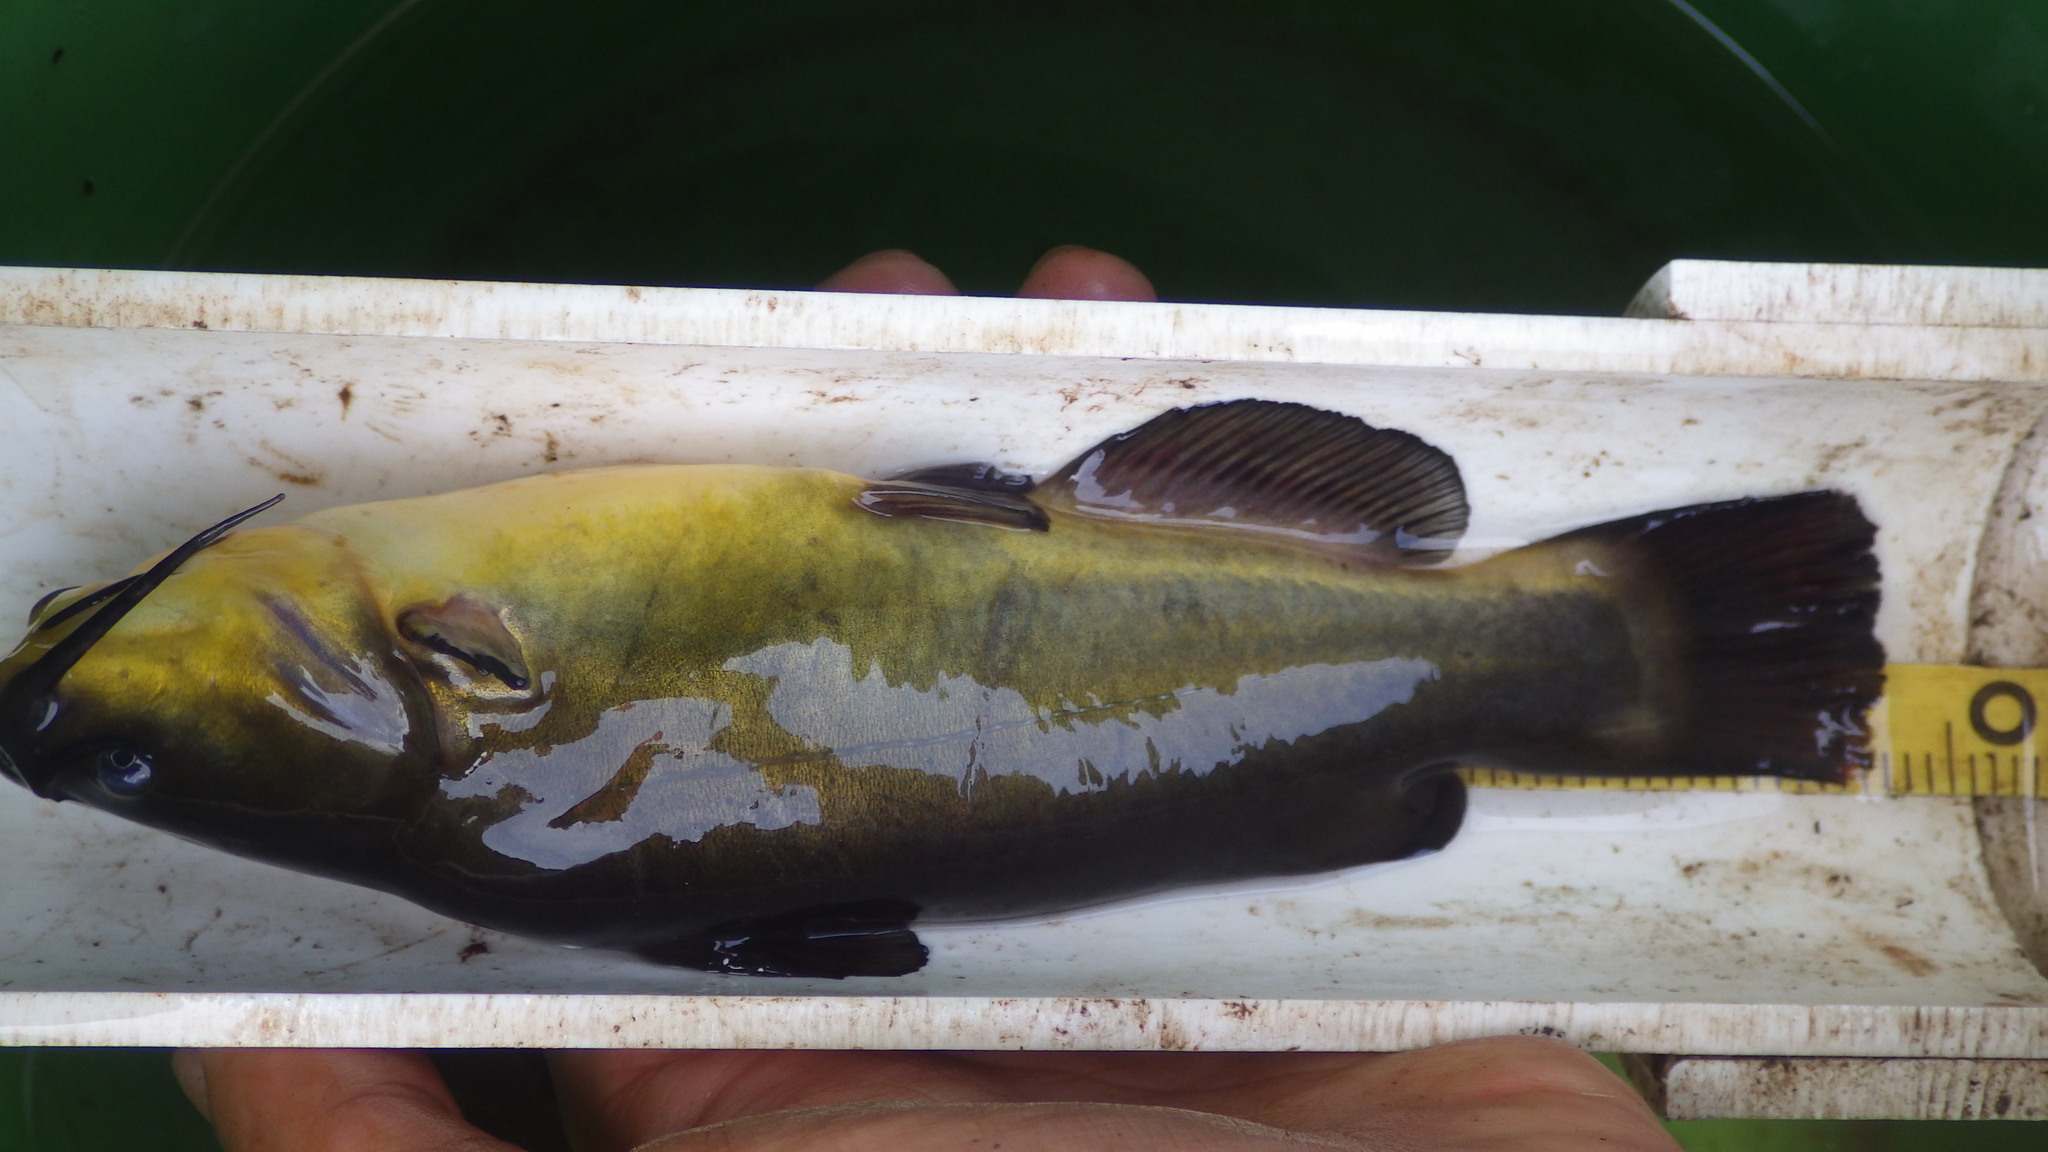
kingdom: Animalia
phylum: Chordata
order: Siluriformes
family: Ictaluridae
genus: Ameiurus
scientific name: Ameiurus melas
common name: Black bullhead
